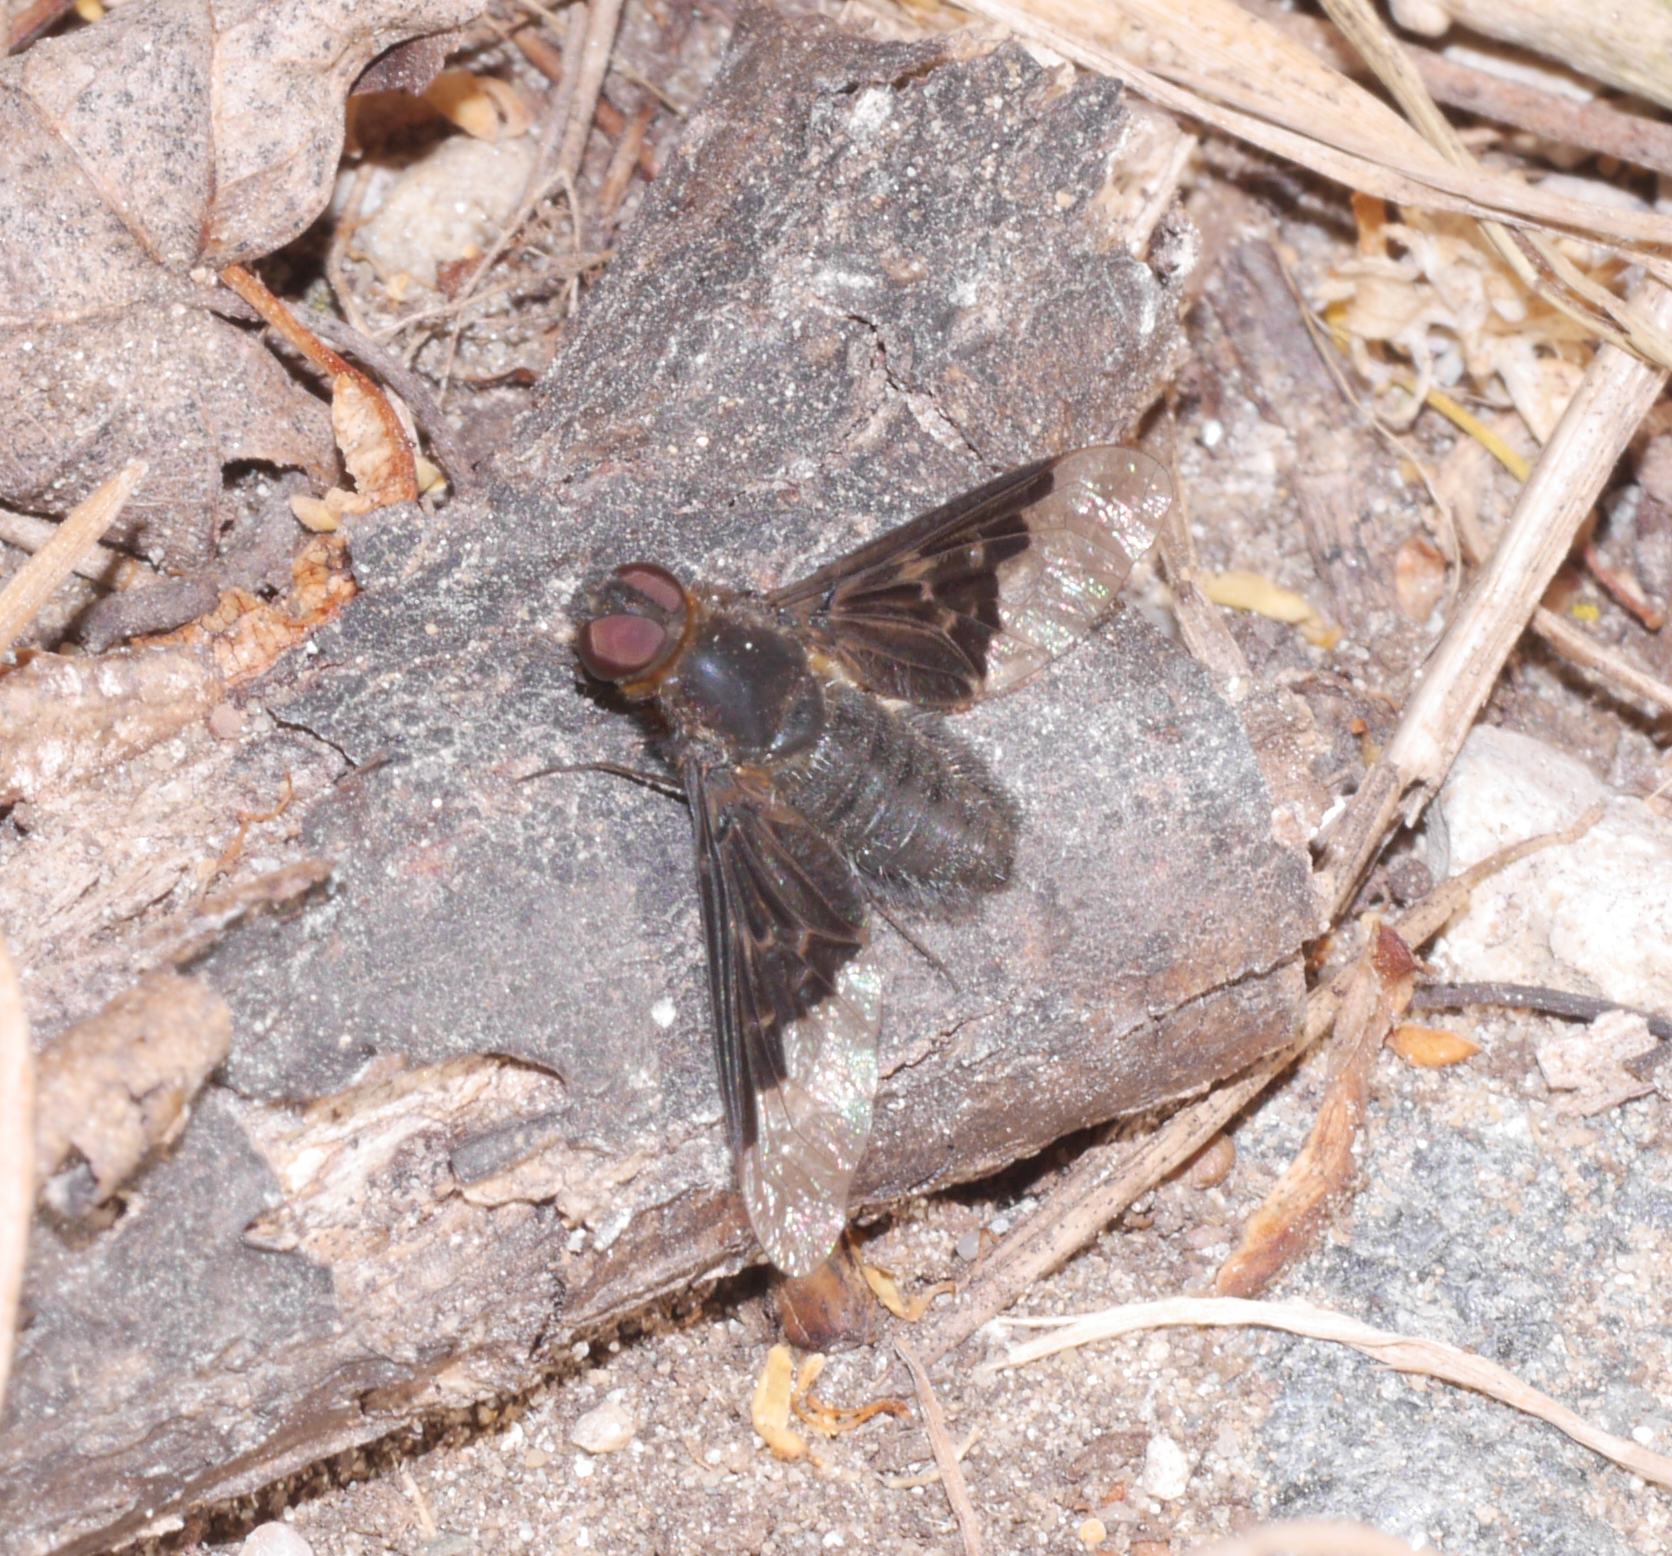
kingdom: Animalia
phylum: Arthropoda
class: Insecta
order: Diptera
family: Bombyliidae
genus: Hemipenthes
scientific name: Hemipenthes morio
